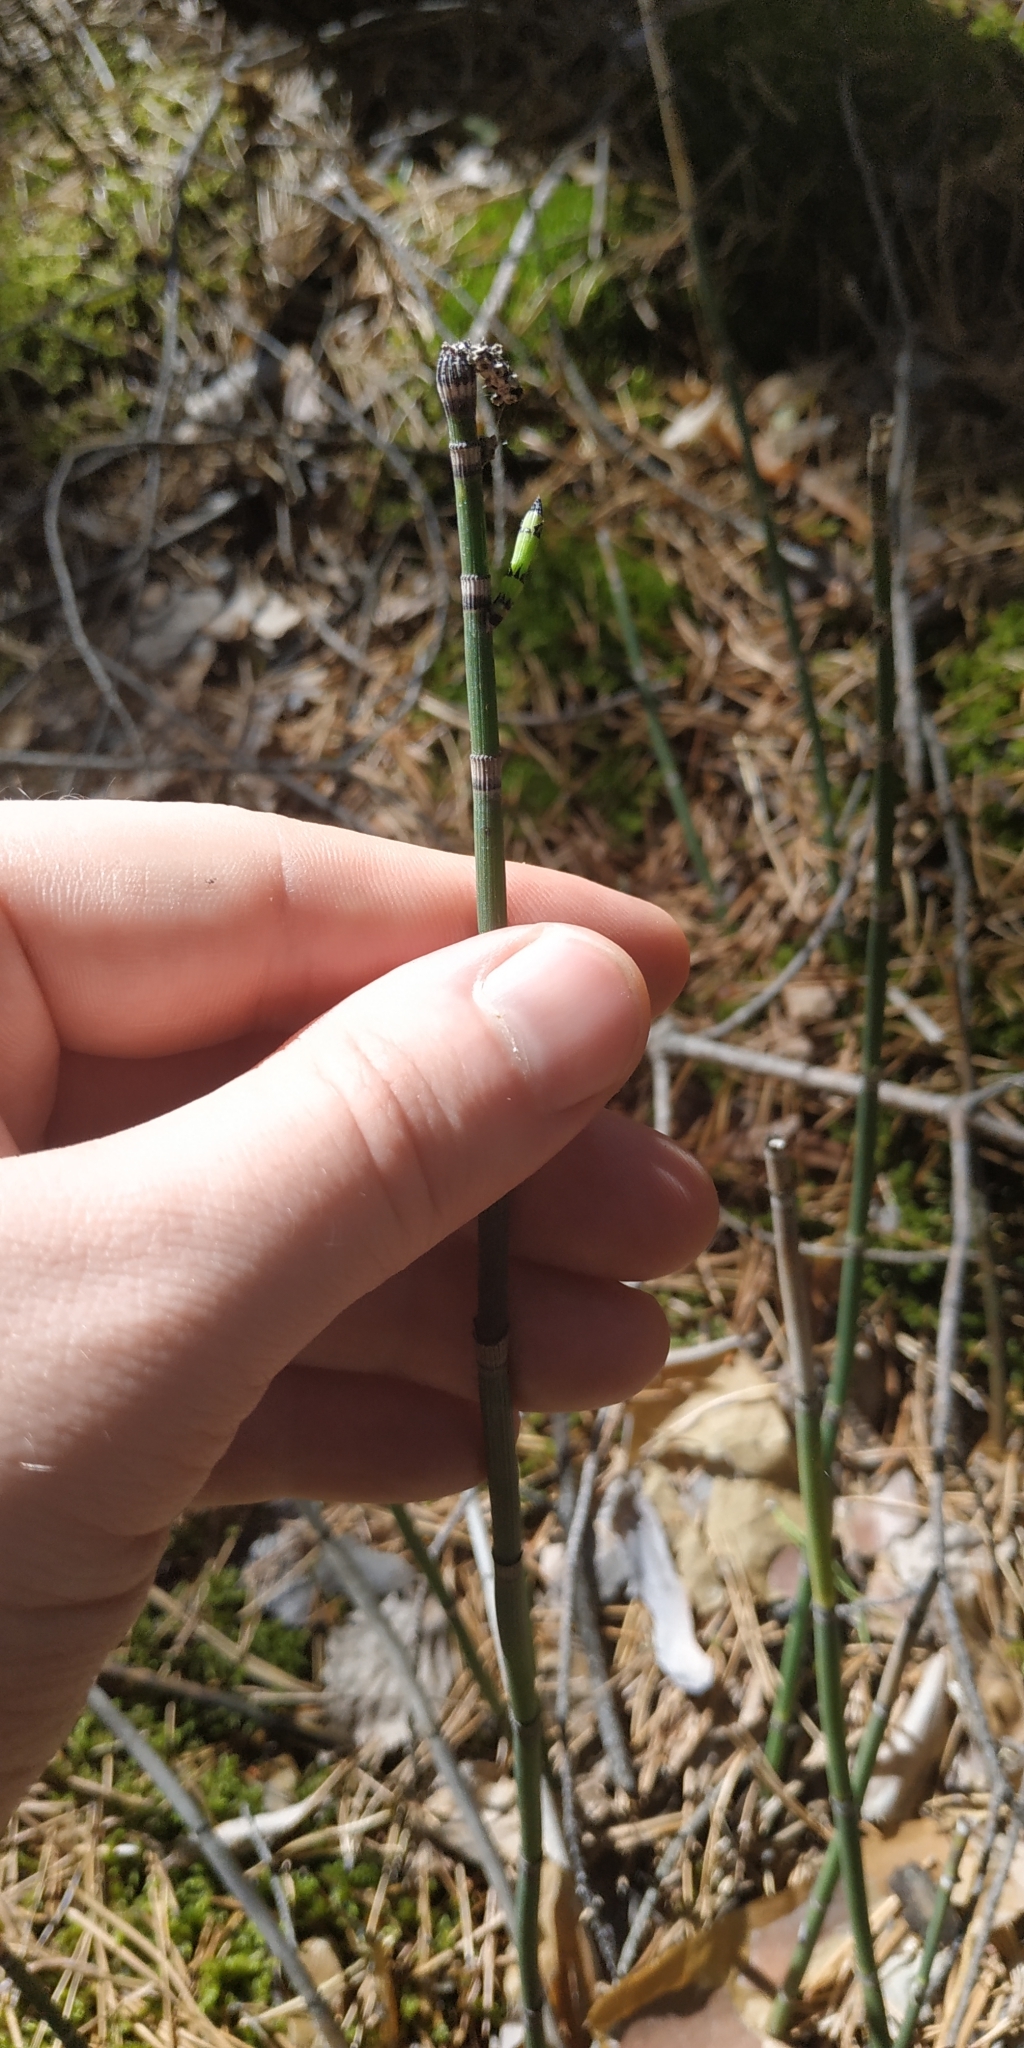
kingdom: Plantae
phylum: Tracheophyta
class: Polypodiopsida
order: Equisetales
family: Equisetaceae
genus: Equisetum
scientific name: Equisetum hyemale
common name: Rough horsetail
